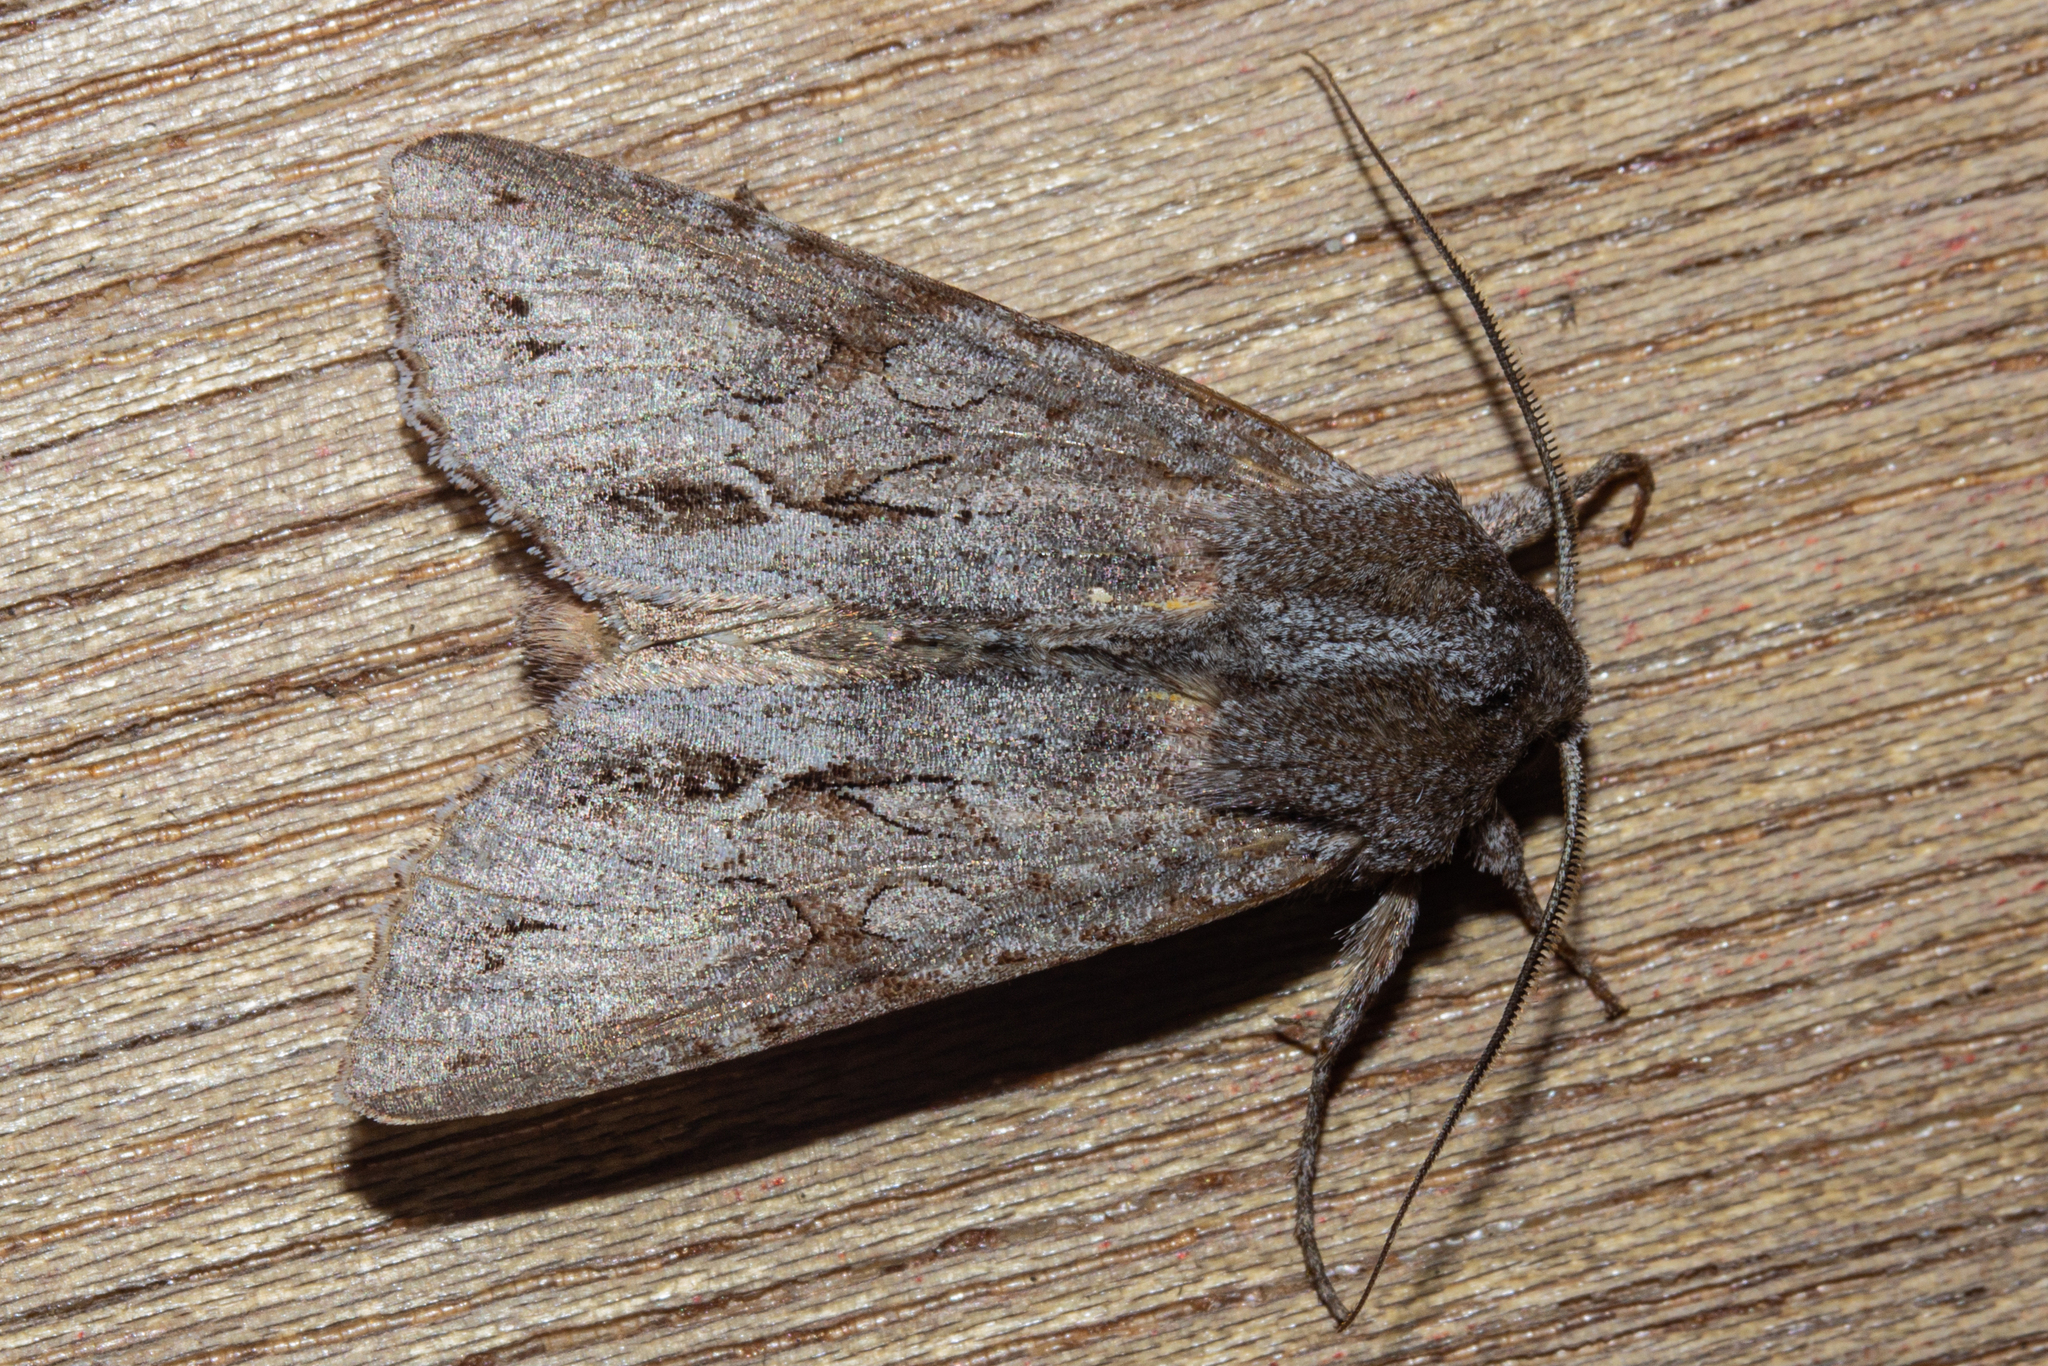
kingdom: Animalia
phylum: Arthropoda
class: Insecta
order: Lepidoptera
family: Noctuidae
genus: Ichneutica
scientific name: Ichneutica
